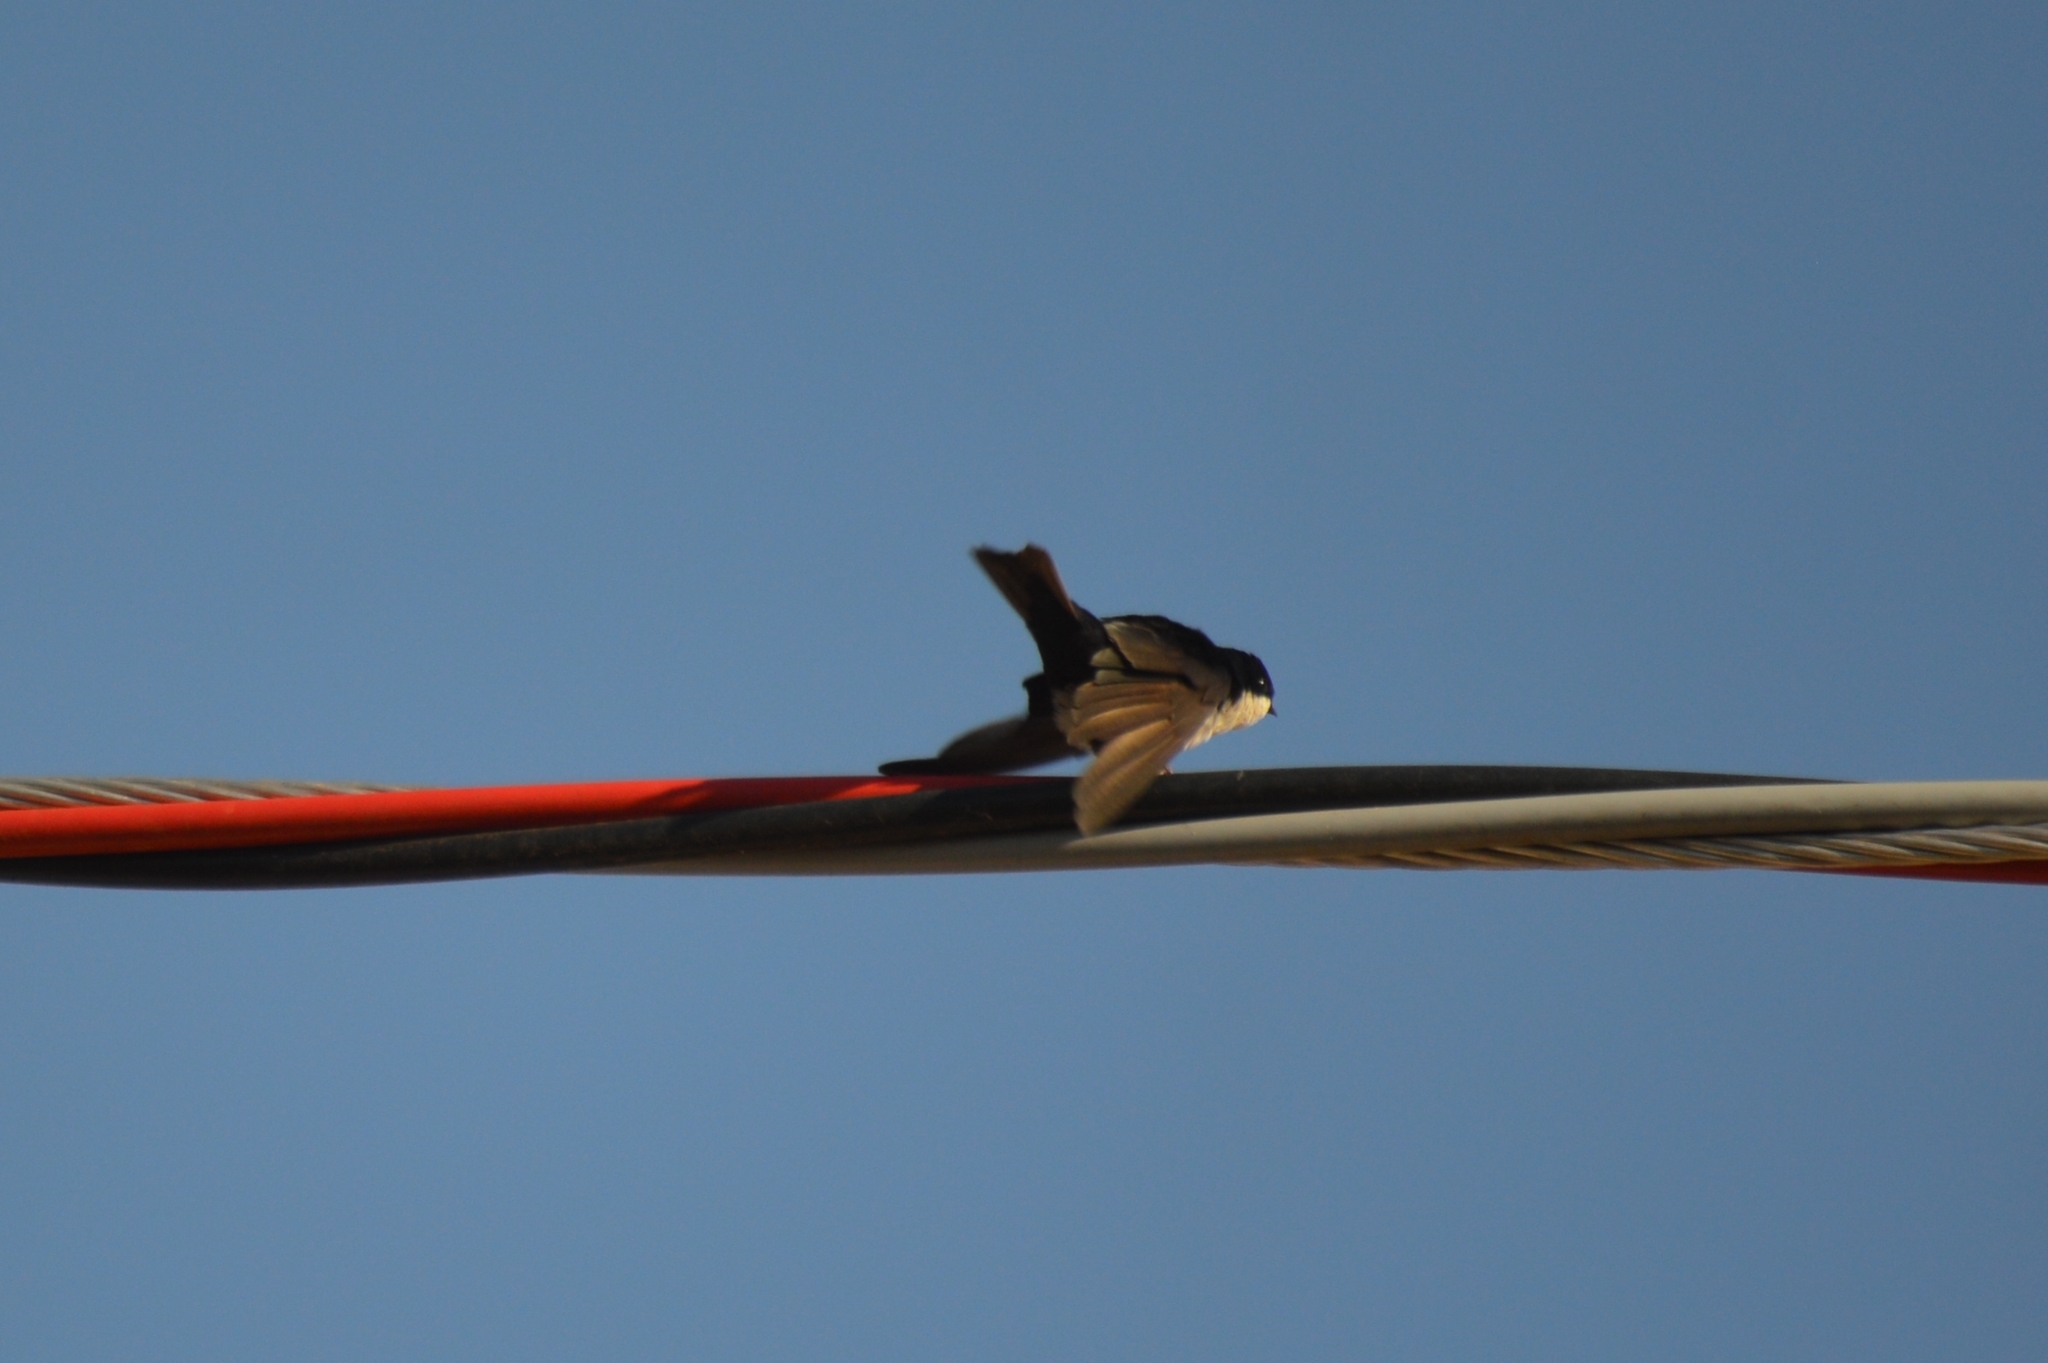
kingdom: Animalia
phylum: Chordata
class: Aves
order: Passeriformes
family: Hirundinidae
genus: Notiochelidon
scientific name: Notiochelidon cyanoleuca
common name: Blue-and-white swallow
